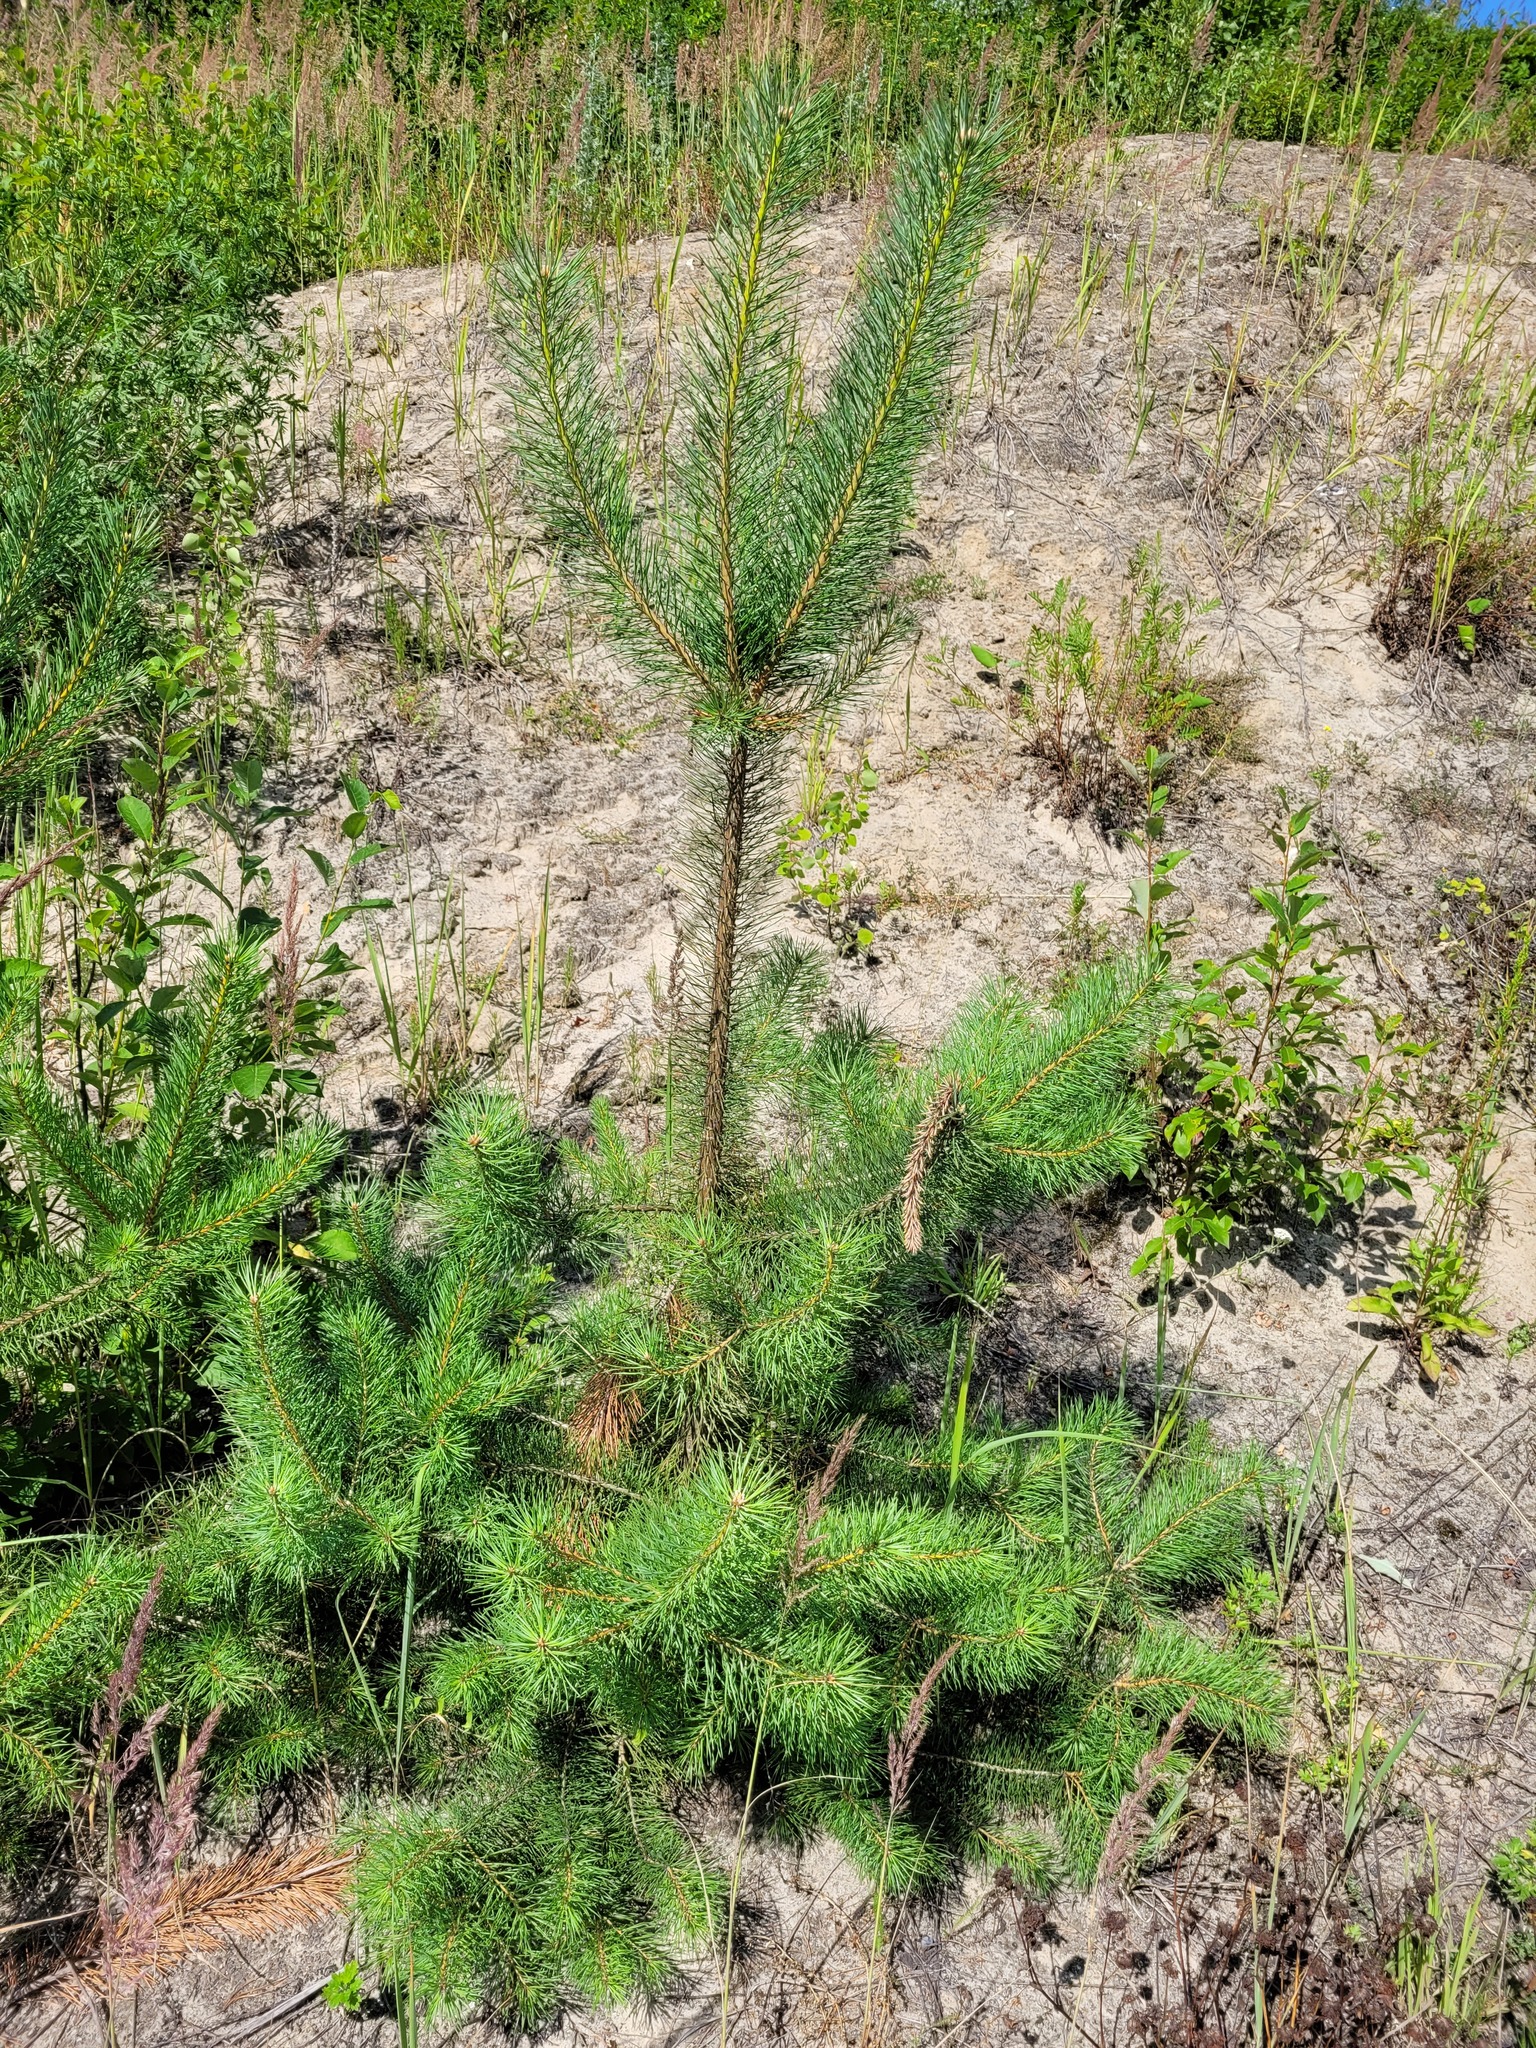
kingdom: Plantae
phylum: Tracheophyta
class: Pinopsida
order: Pinales
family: Pinaceae
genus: Pinus
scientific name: Pinus sylvestris
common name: Scots pine
